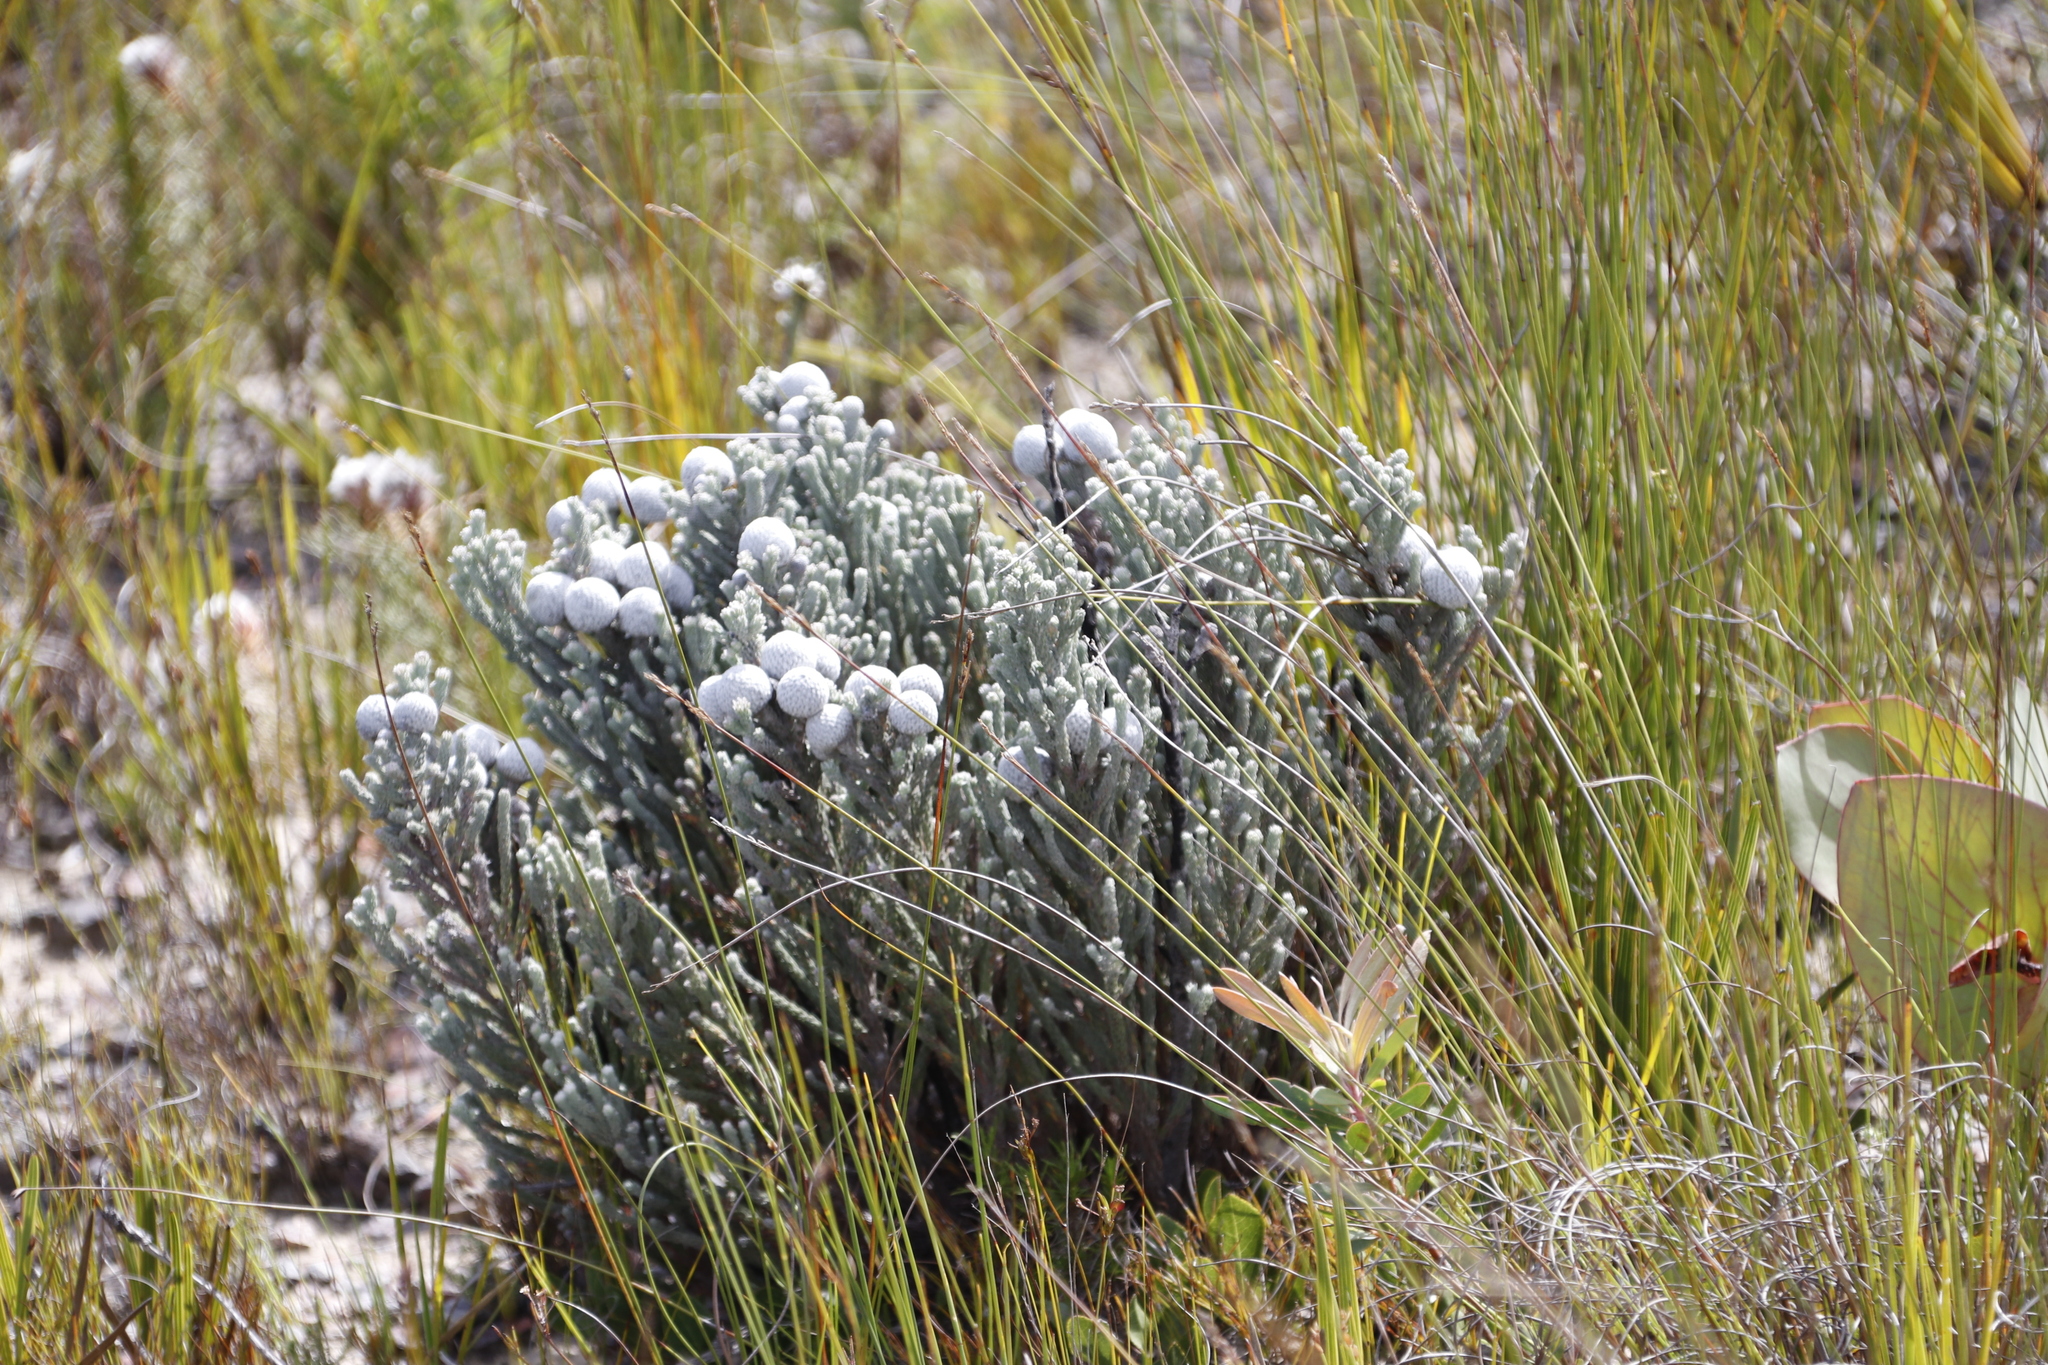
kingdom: Plantae
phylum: Tracheophyta
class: Magnoliopsida
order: Bruniales
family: Bruniaceae
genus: Brunia
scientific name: Brunia laevis
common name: Silver brunia
